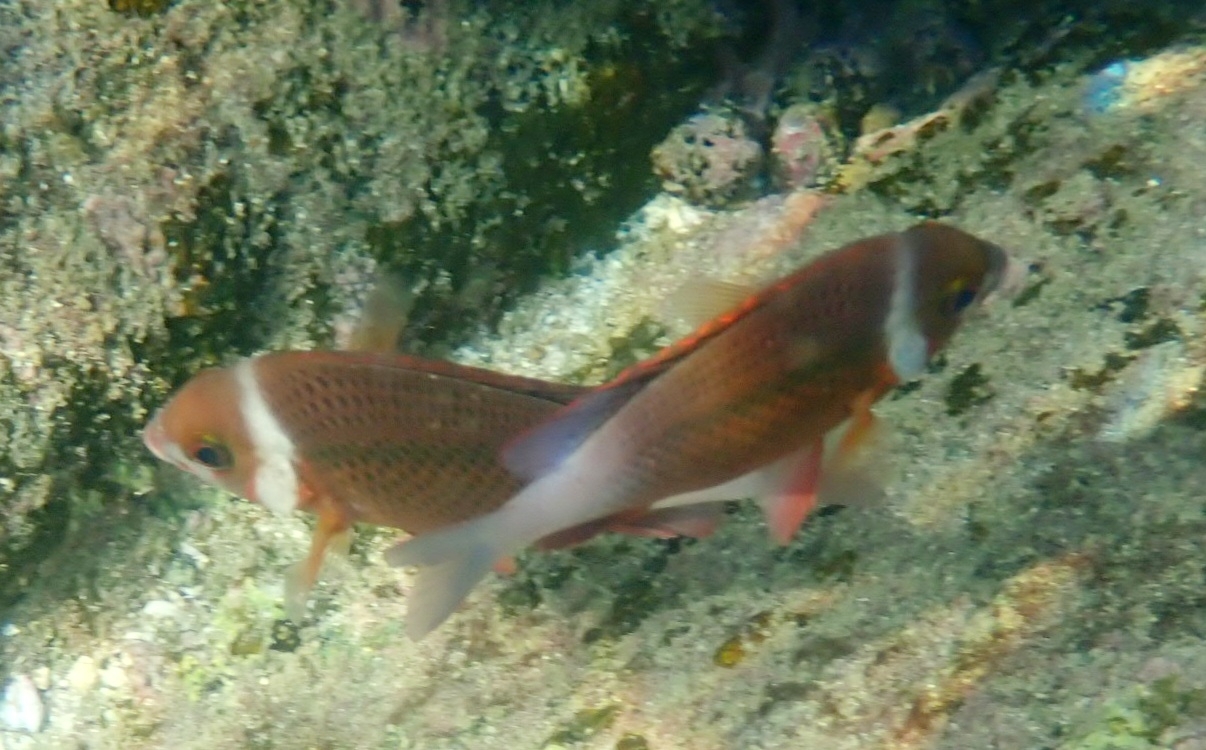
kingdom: Animalia
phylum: Chordata
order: Perciformes
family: Nemipteridae
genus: Scolopsis
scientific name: Scolopsis vosmeri
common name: Whitecheek monocle bream
